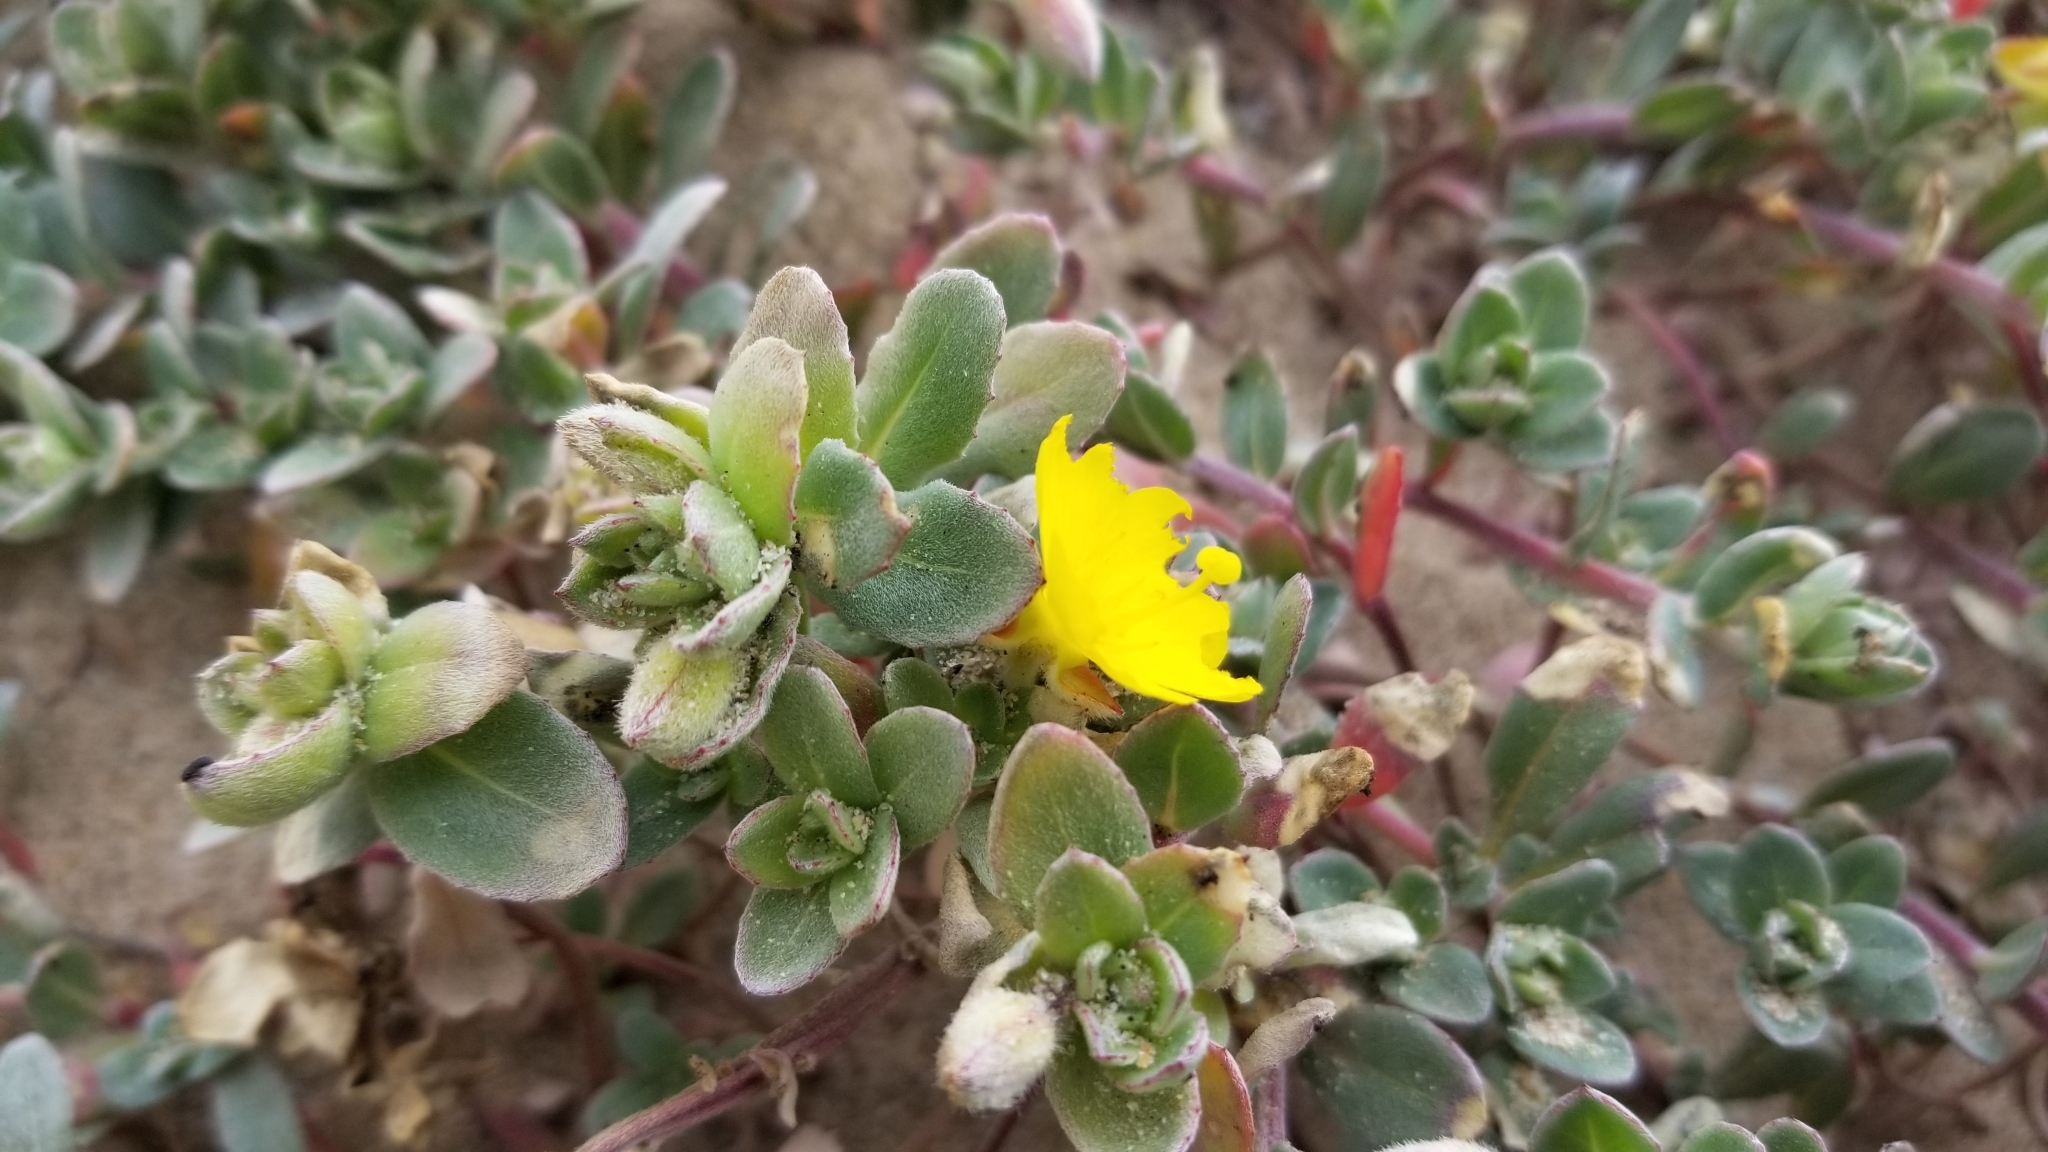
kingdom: Plantae
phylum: Tracheophyta
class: Magnoliopsida
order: Myrtales
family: Onagraceae
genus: Camissoniopsis
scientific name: Camissoniopsis cheiranthifolia
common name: Beach suncup
